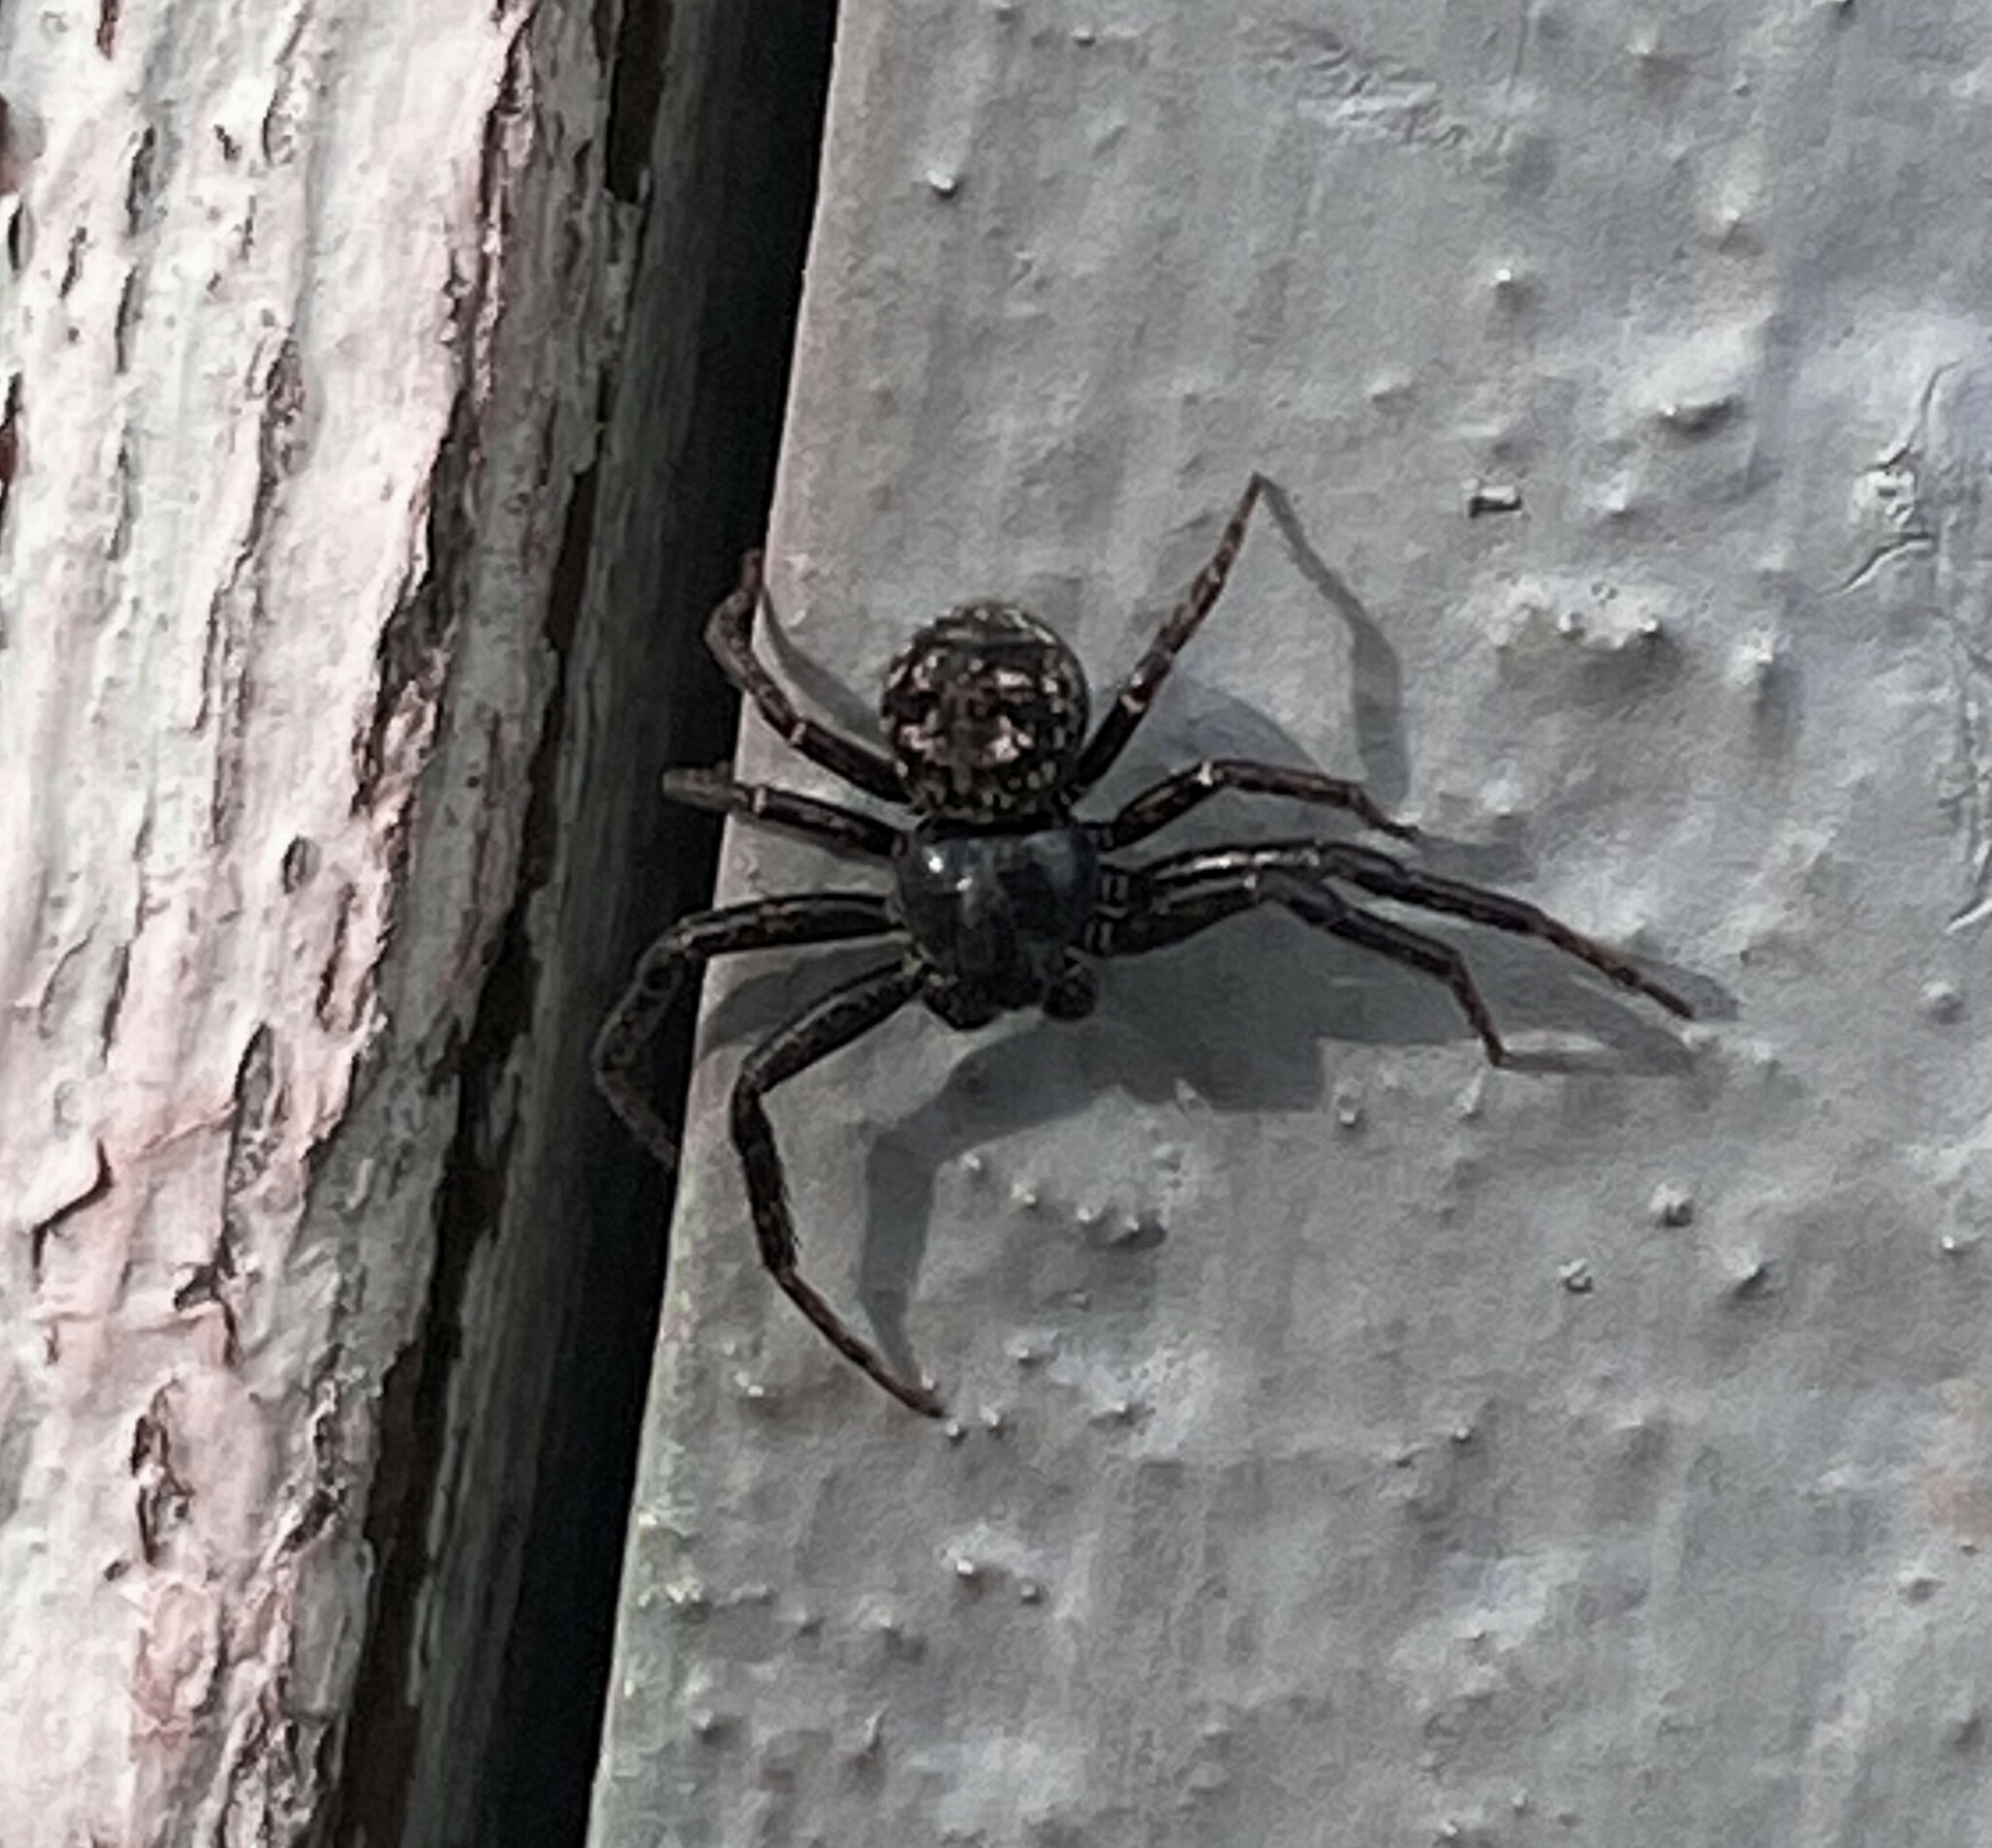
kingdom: Animalia
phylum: Arthropoda
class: Arachnida
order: Araneae
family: Thomisidae
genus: Bassaniana
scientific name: Bassaniana versicolor
